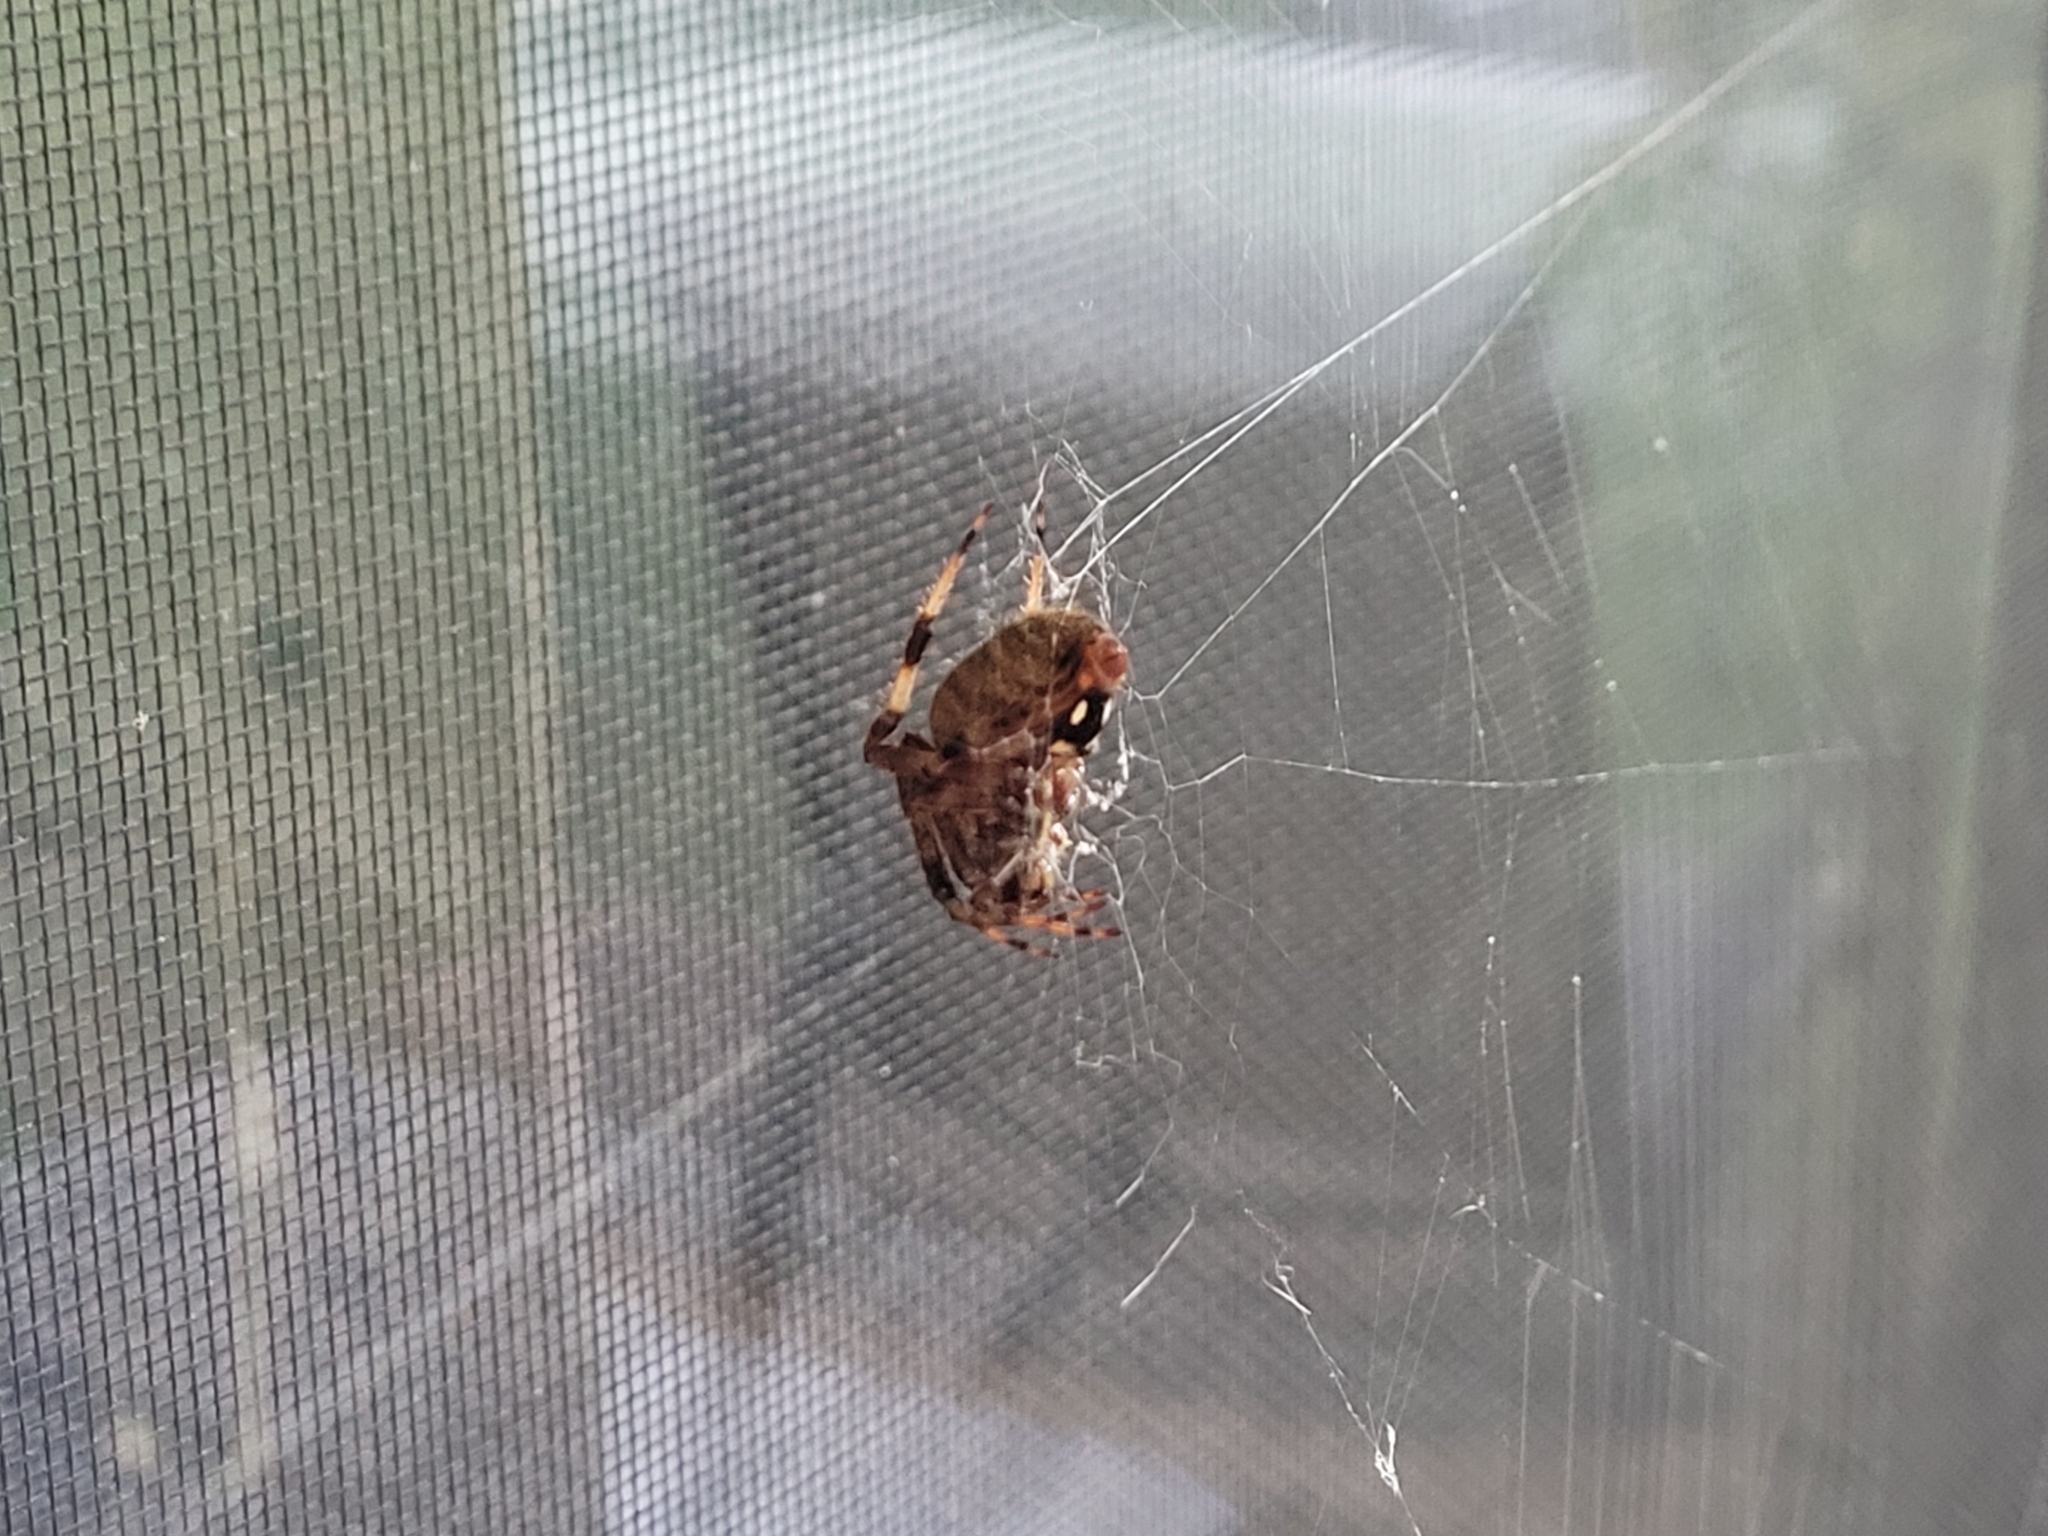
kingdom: Animalia
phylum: Arthropoda
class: Arachnida
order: Araneae
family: Araneidae
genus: Neoscona
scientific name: Neoscona crucifera
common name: Spotted orbweaver
